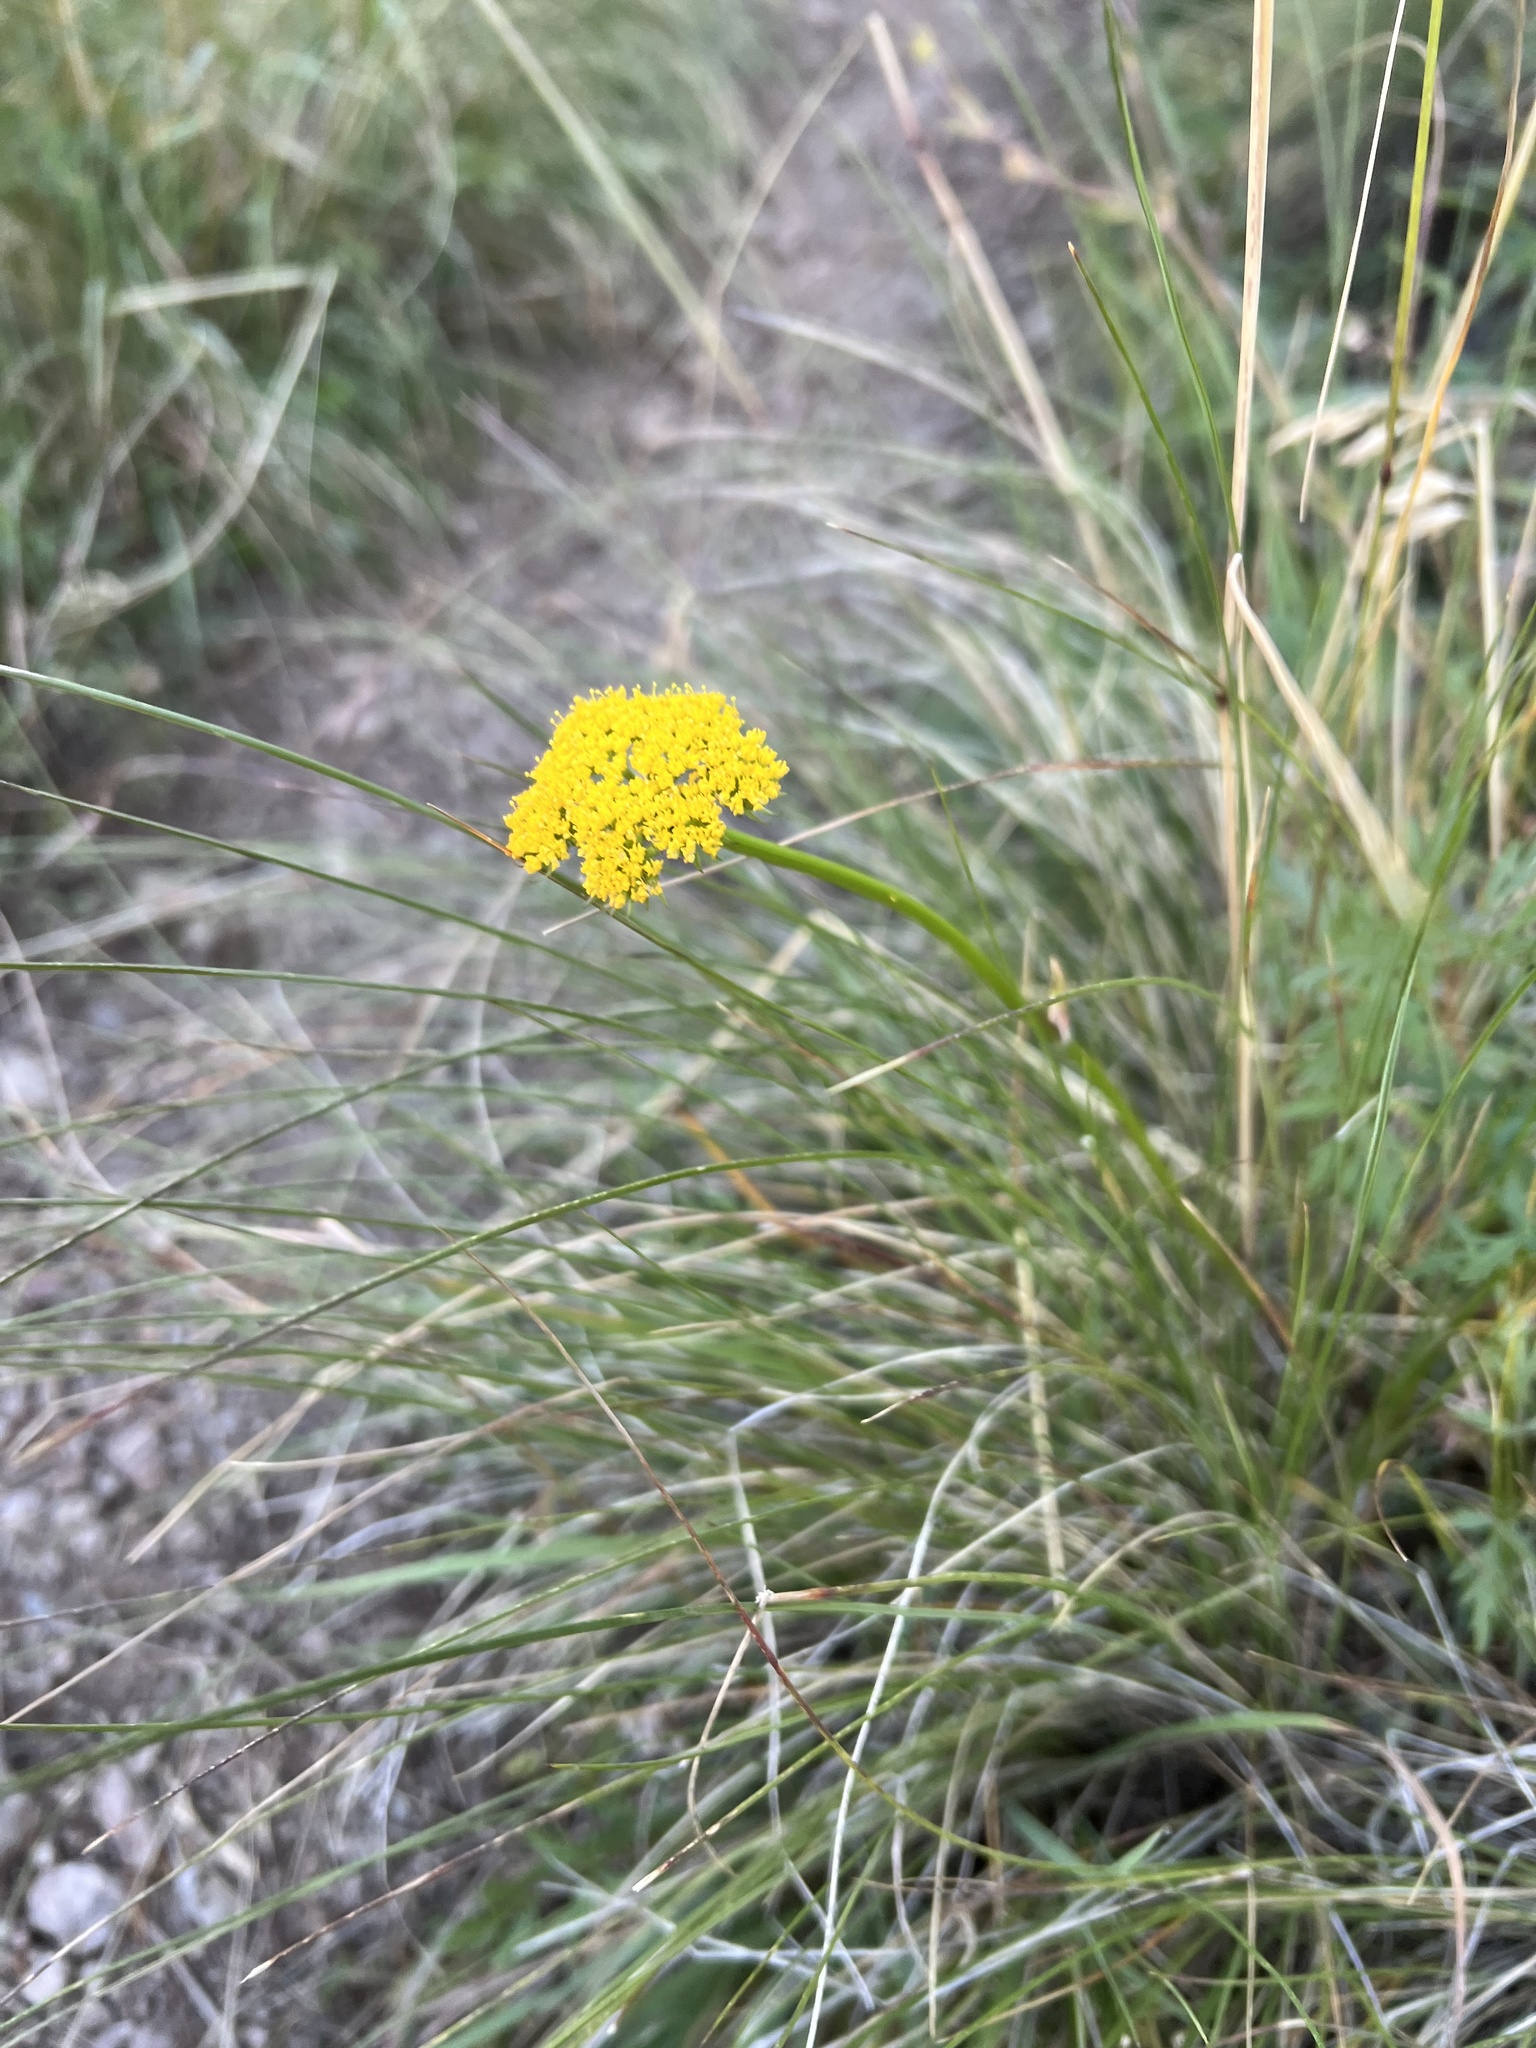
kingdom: Plantae
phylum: Tracheophyta
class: Magnoliopsida
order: Apiales
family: Apiaceae
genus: Cymopterus
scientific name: Cymopterus lemmonii
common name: Lemmon's spring-parsley
